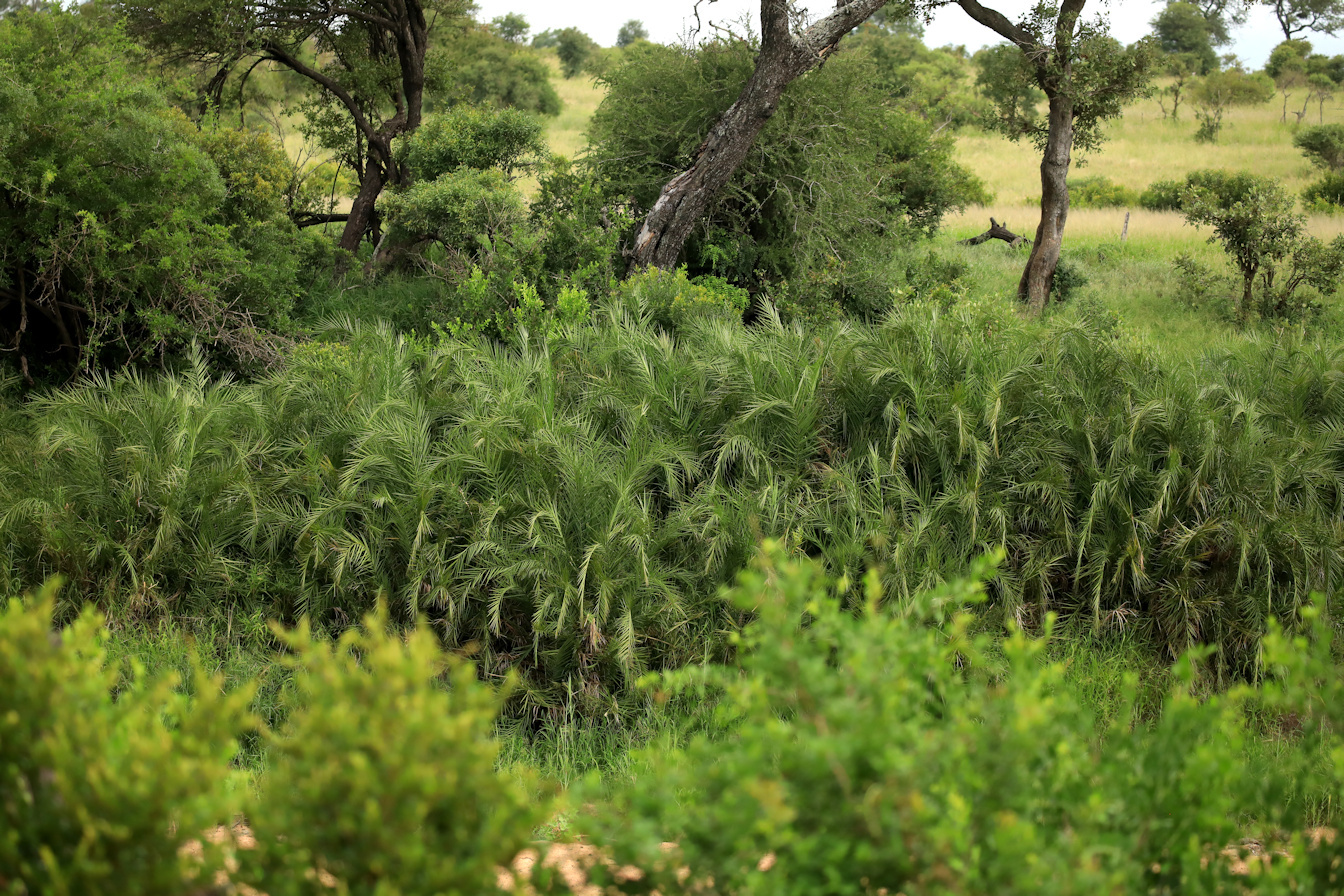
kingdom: Plantae
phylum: Tracheophyta
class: Liliopsida
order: Arecales
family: Arecaceae
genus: Phoenix
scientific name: Phoenix reclinata
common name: Senegal date palm
